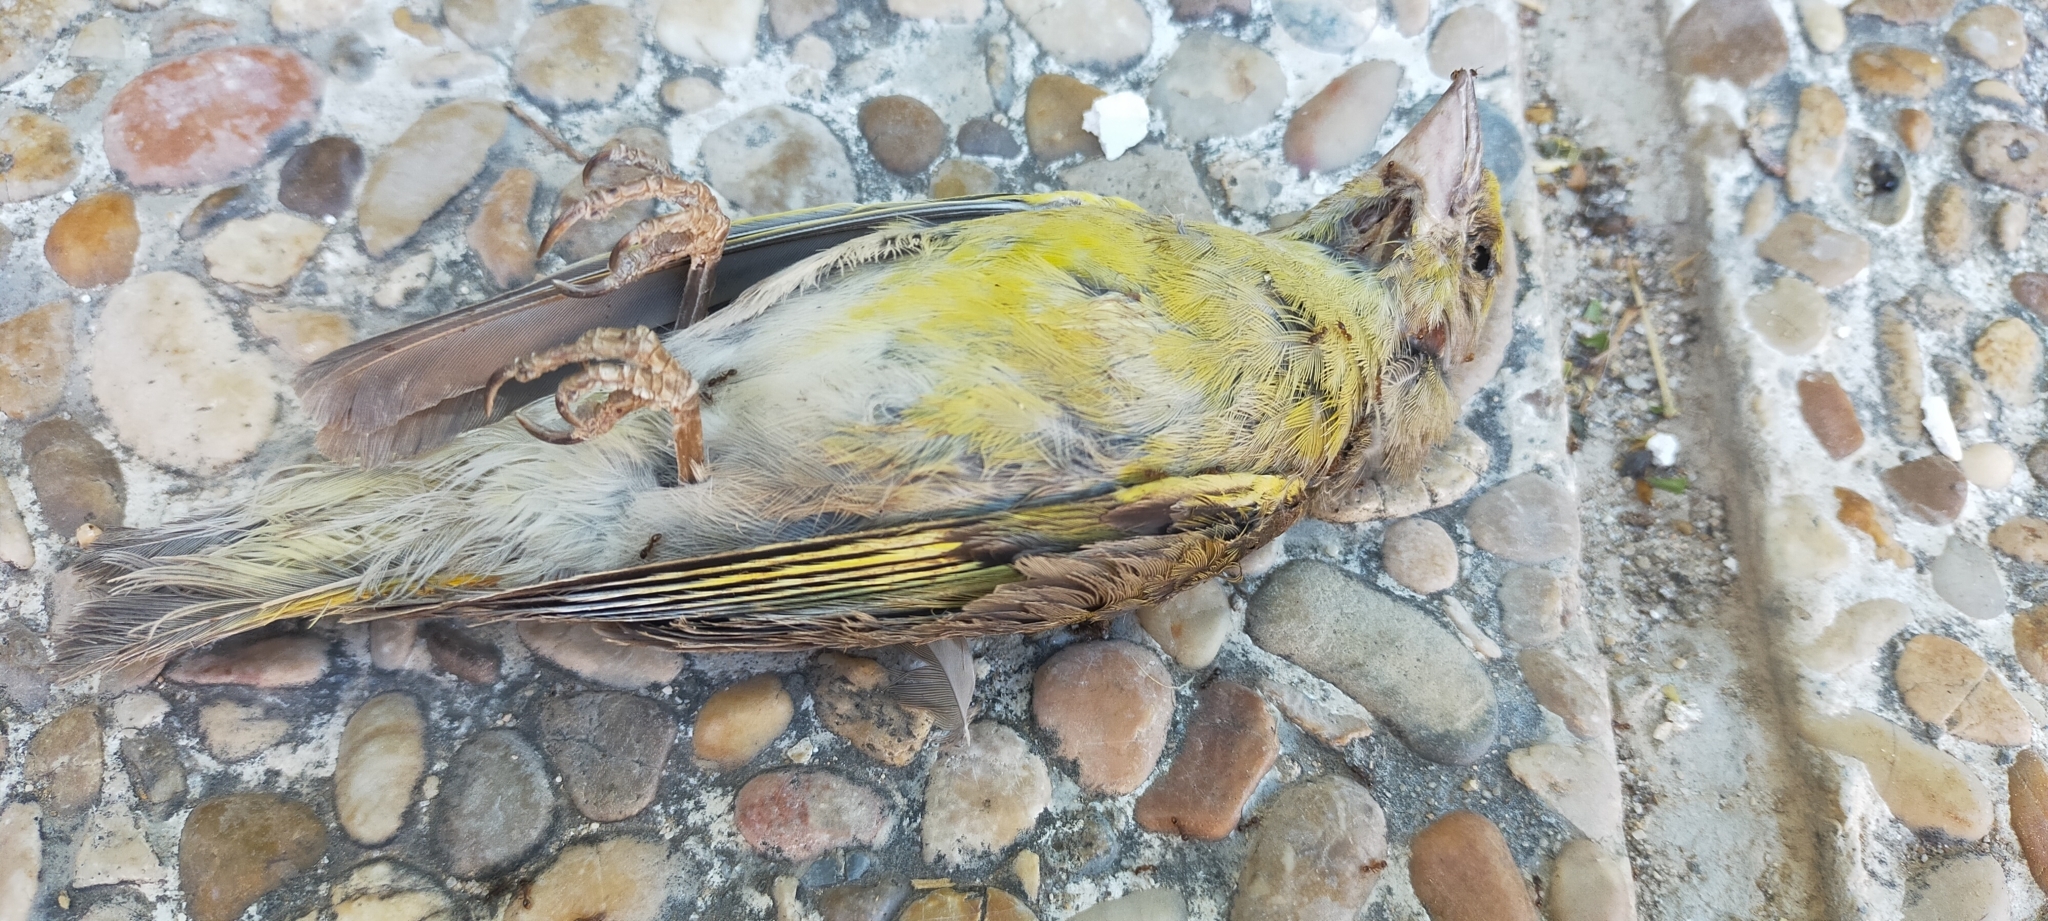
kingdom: Plantae
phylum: Tracheophyta
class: Liliopsida
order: Poales
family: Poaceae
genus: Chloris
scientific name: Chloris chloris
